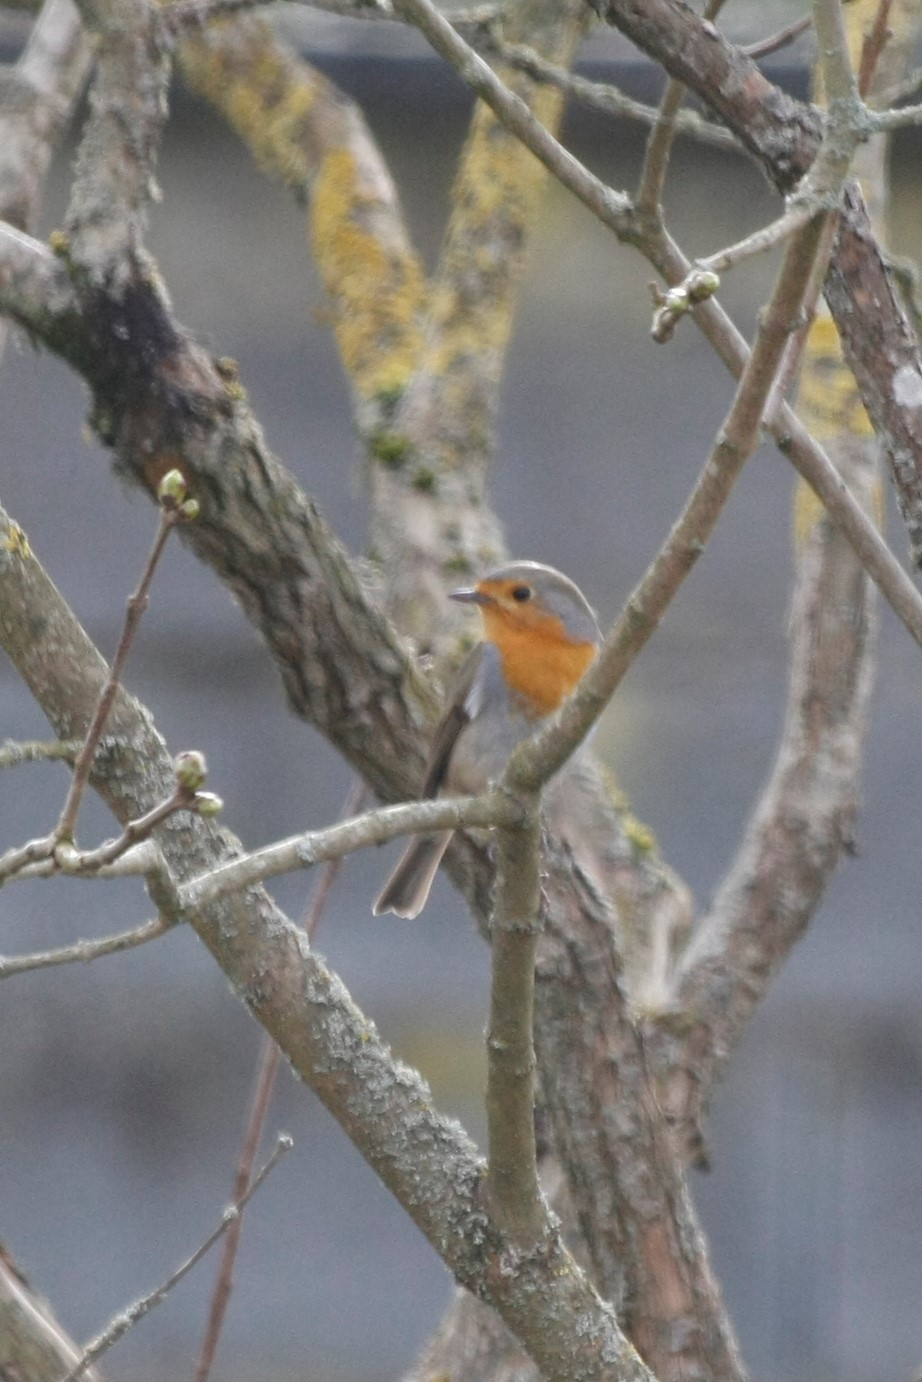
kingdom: Animalia
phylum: Chordata
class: Aves
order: Passeriformes
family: Muscicapidae
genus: Erithacus
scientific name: Erithacus rubecula
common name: European robin
